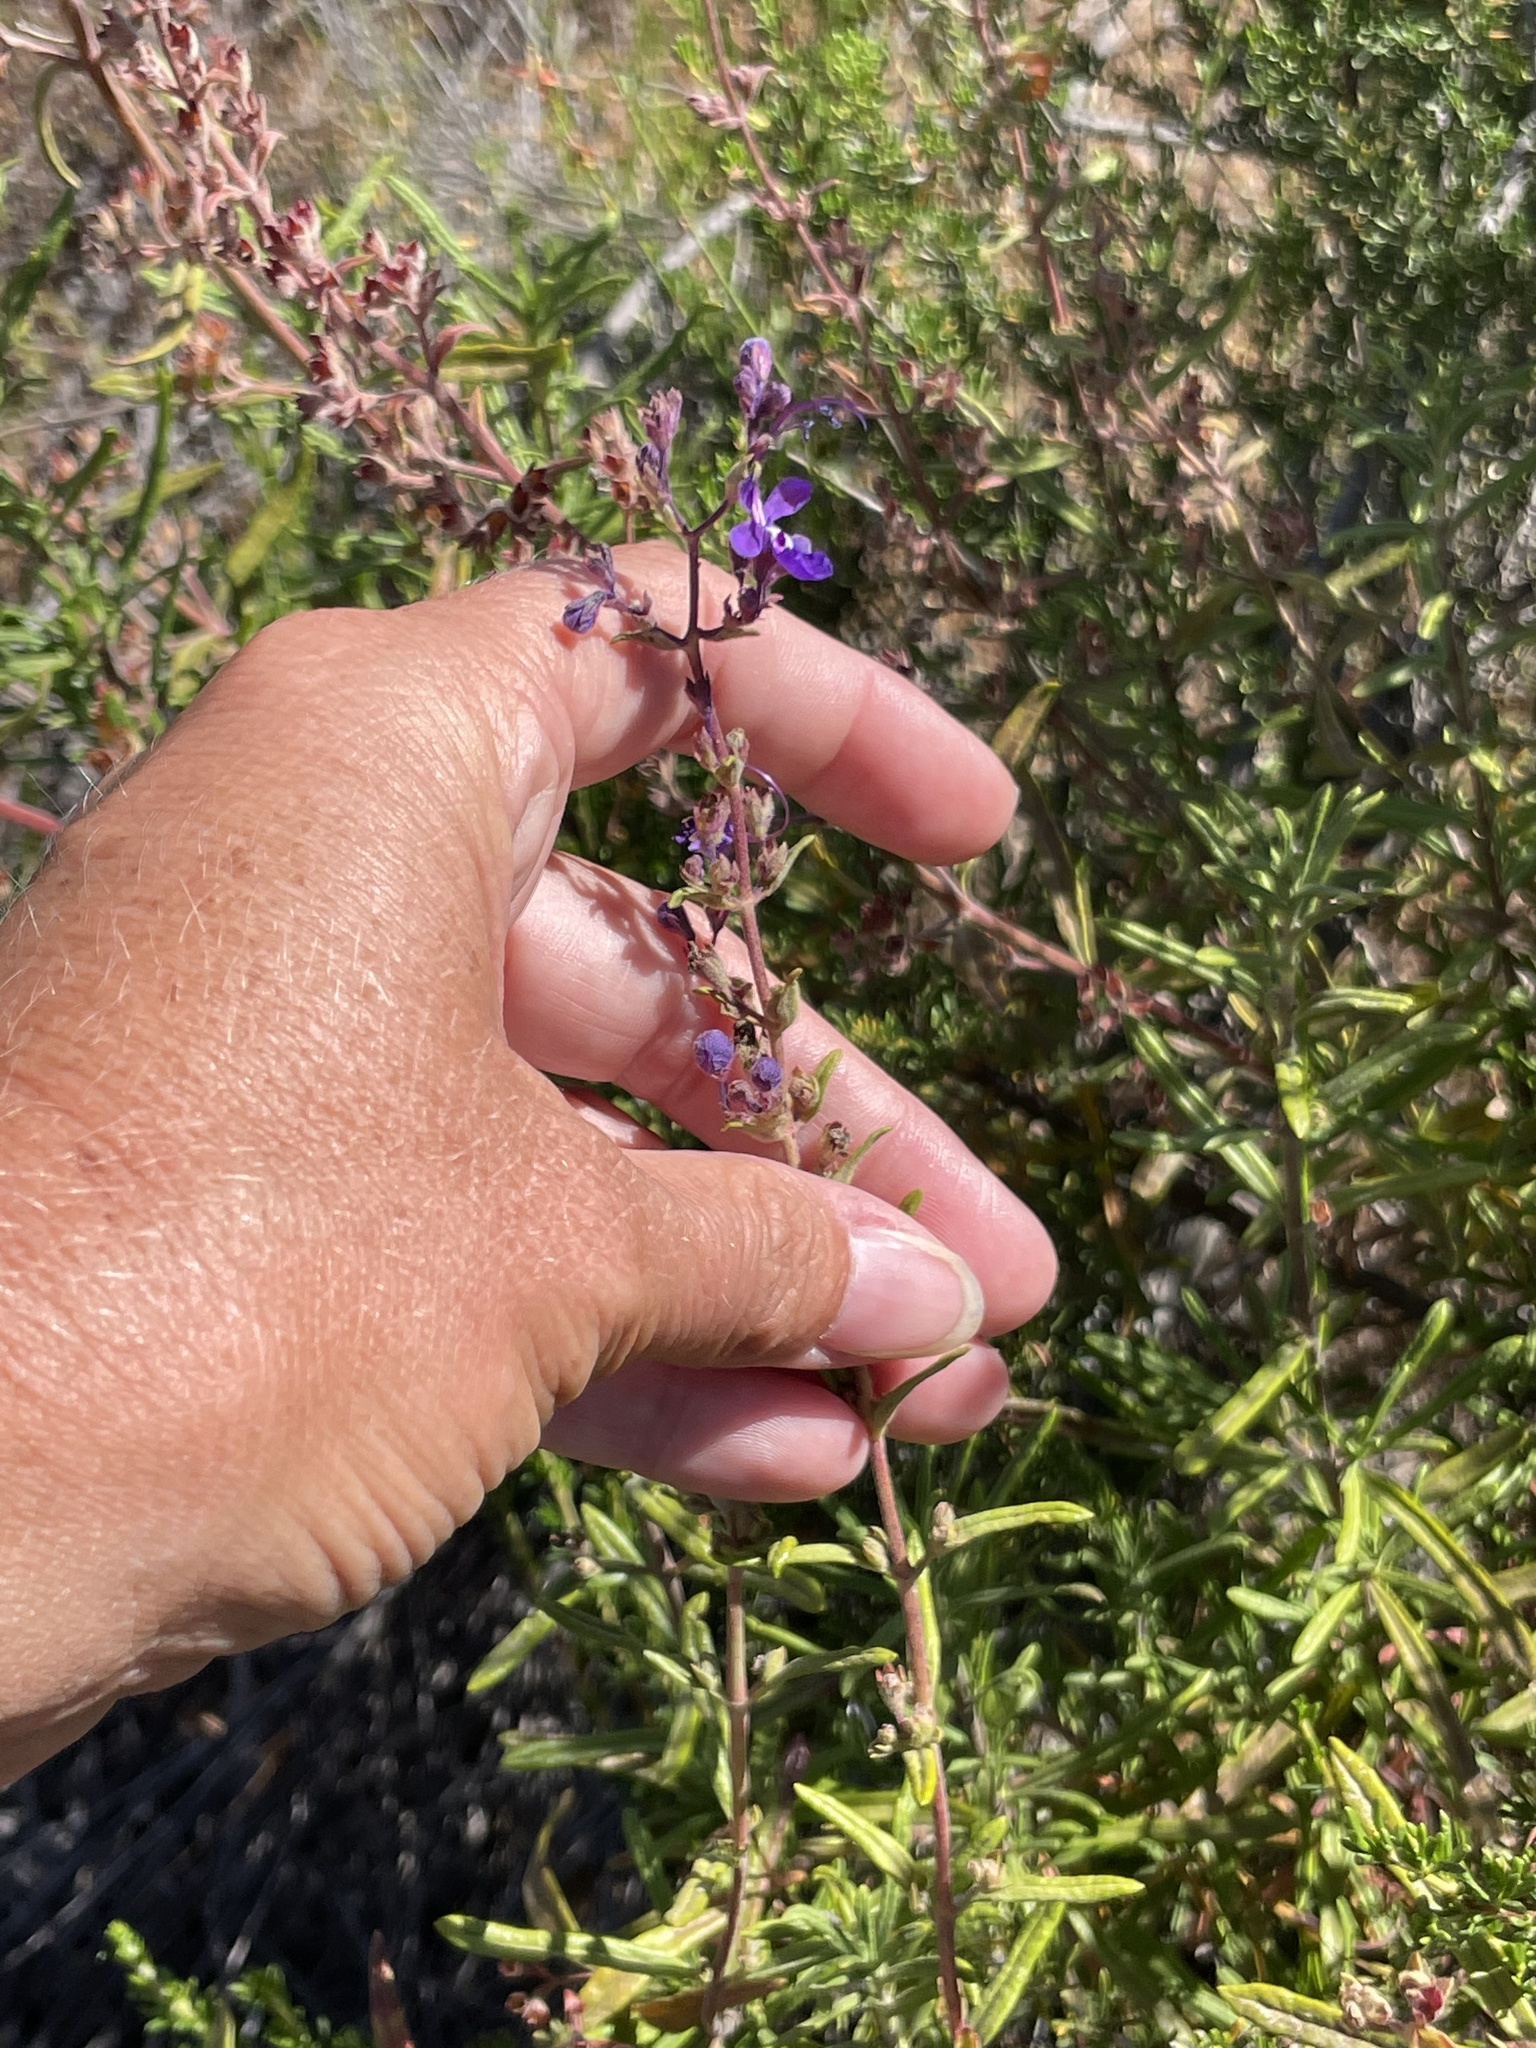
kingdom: Plantae
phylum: Tracheophyta
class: Magnoliopsida
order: Lamiales
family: Lamiaceae
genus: Trichostema
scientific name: Trichostema parishii
